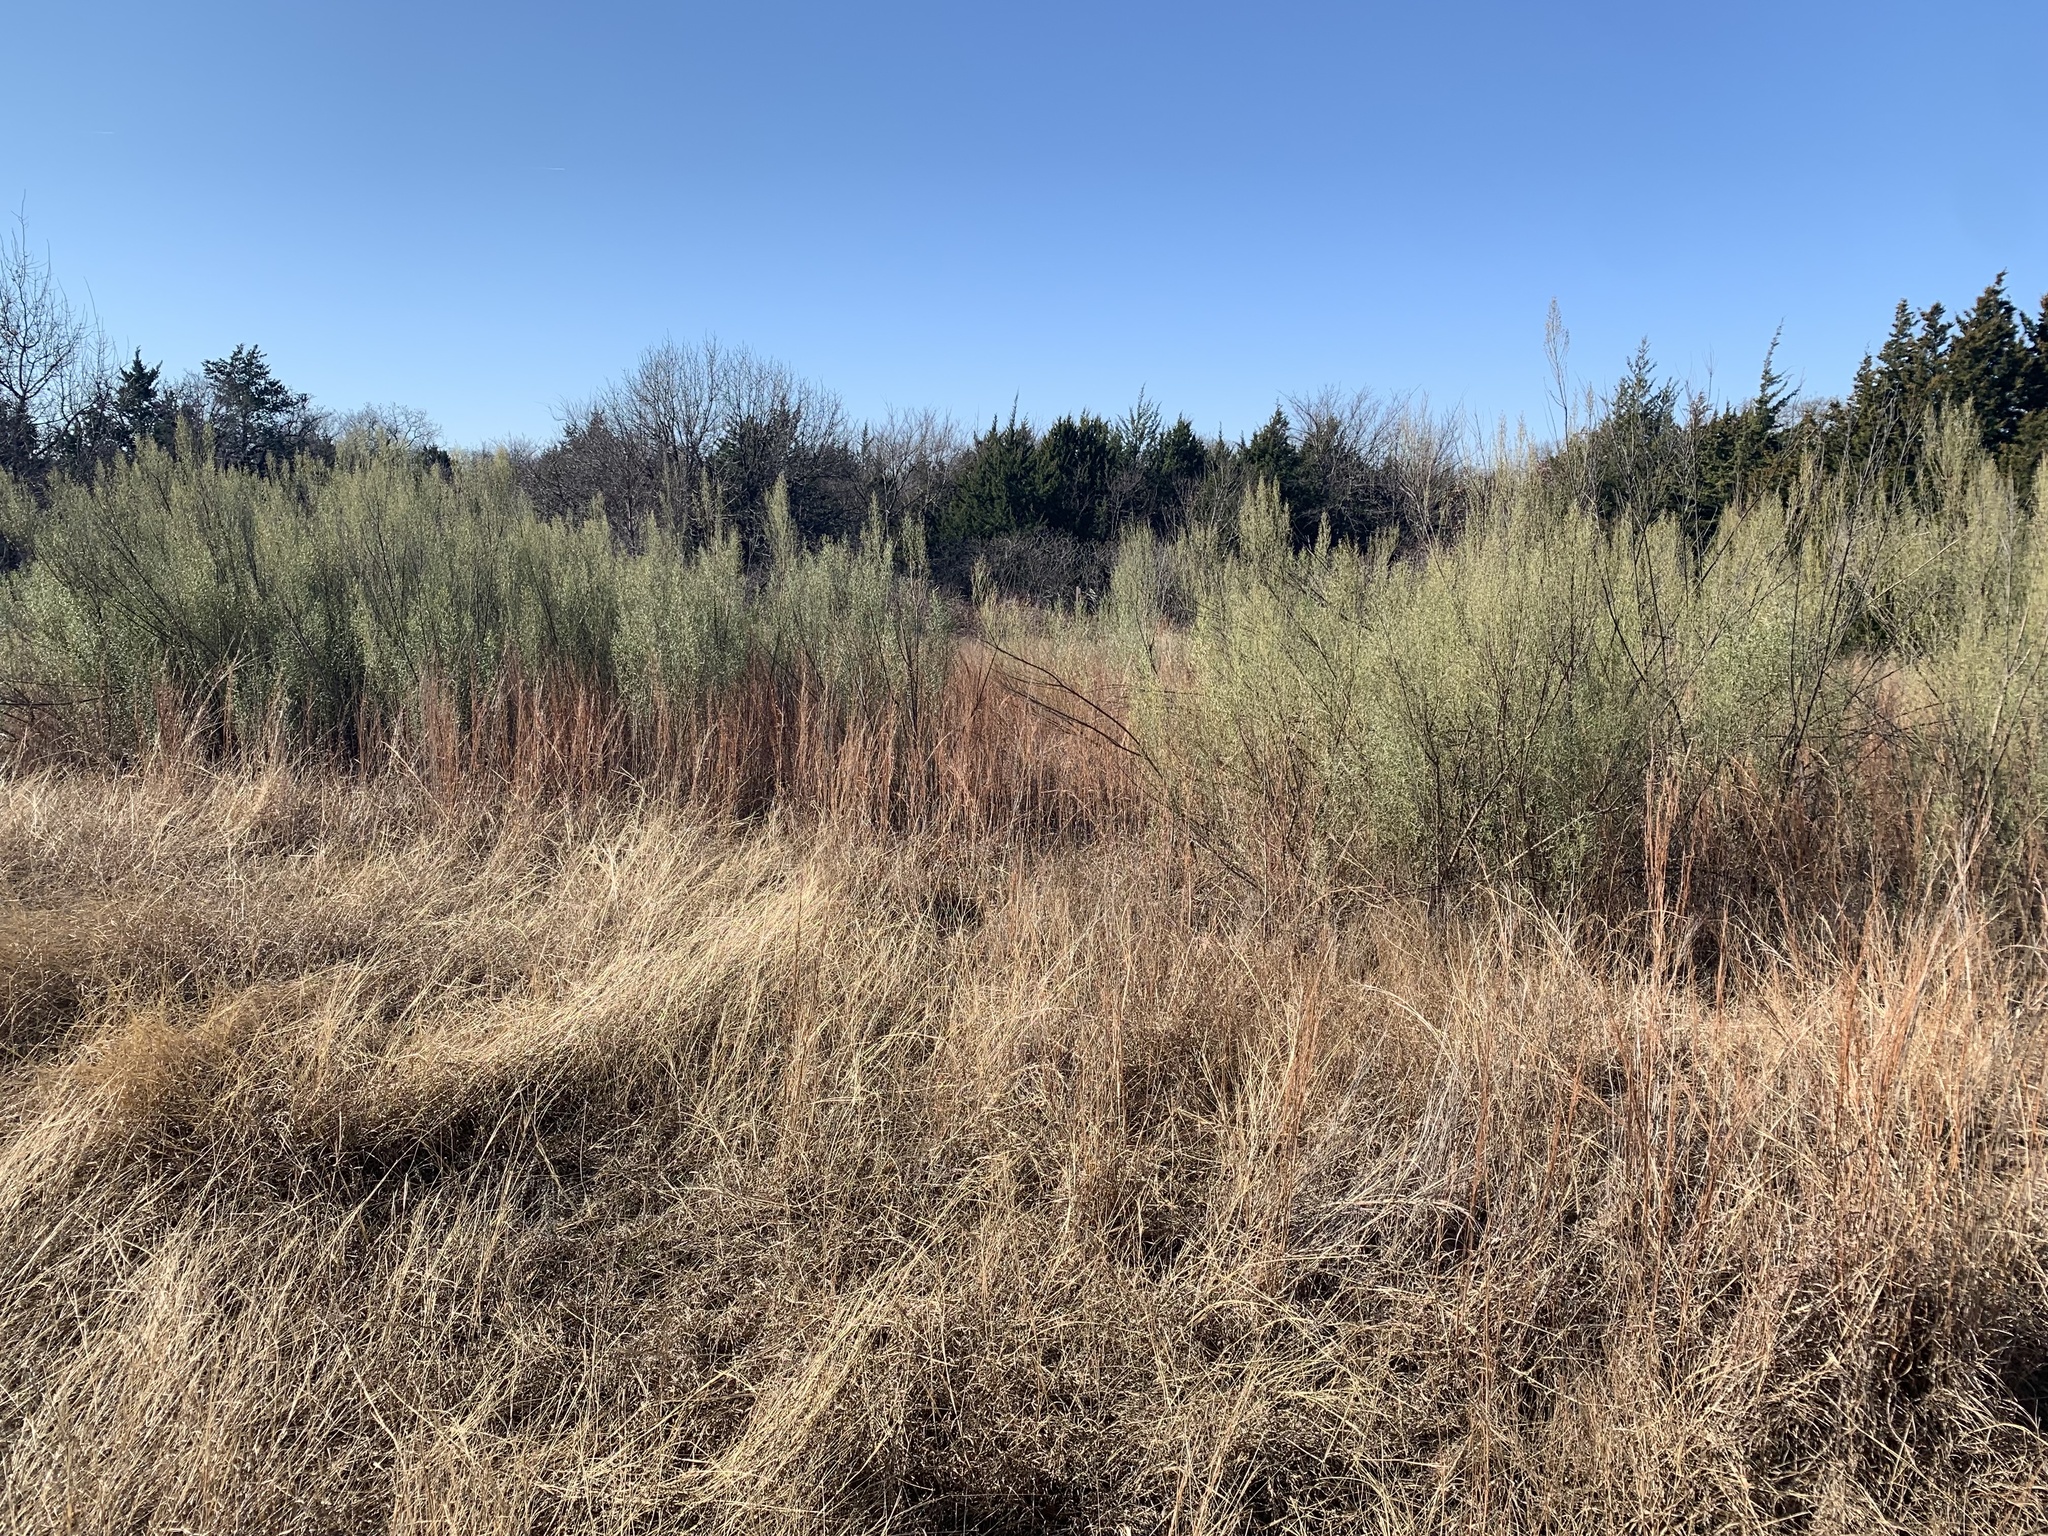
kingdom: Plantae
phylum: Tracheophyta
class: Magnoliopsida
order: Asterales
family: Asteraceae
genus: Baccharis
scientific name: Baccharis neglecta
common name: Roosevelt-weed
